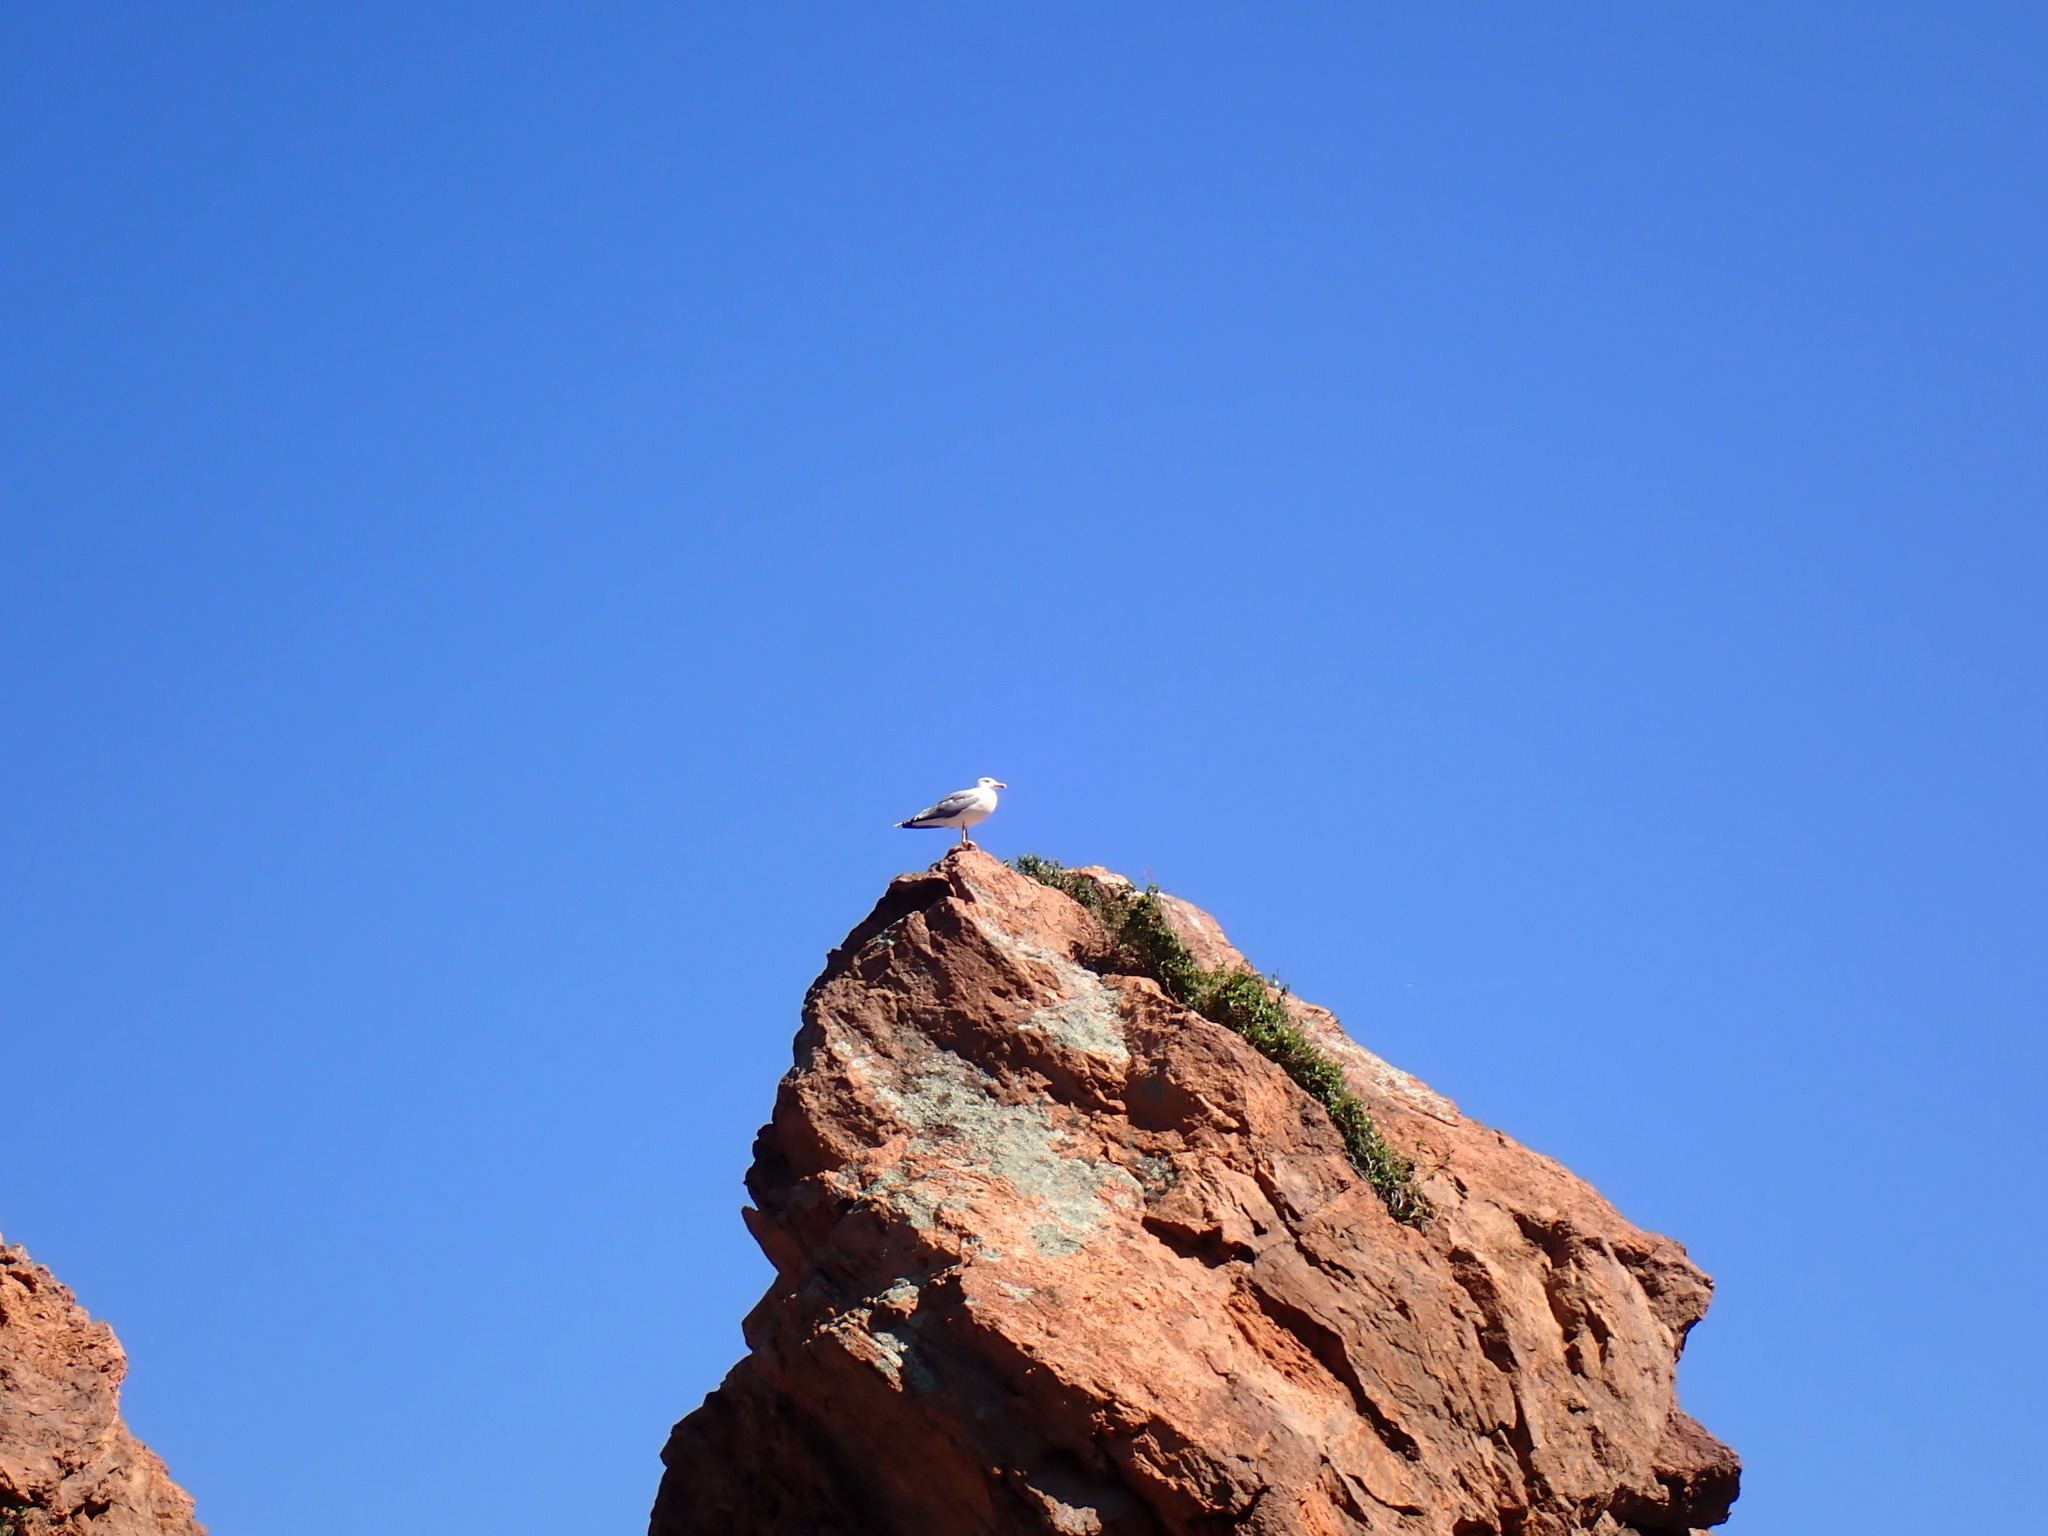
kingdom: Animalia
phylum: Chordata
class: Aves
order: Charadriiformes
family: Laridae
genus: Larus
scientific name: Larus michahellis
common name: Yellow-legged gull
